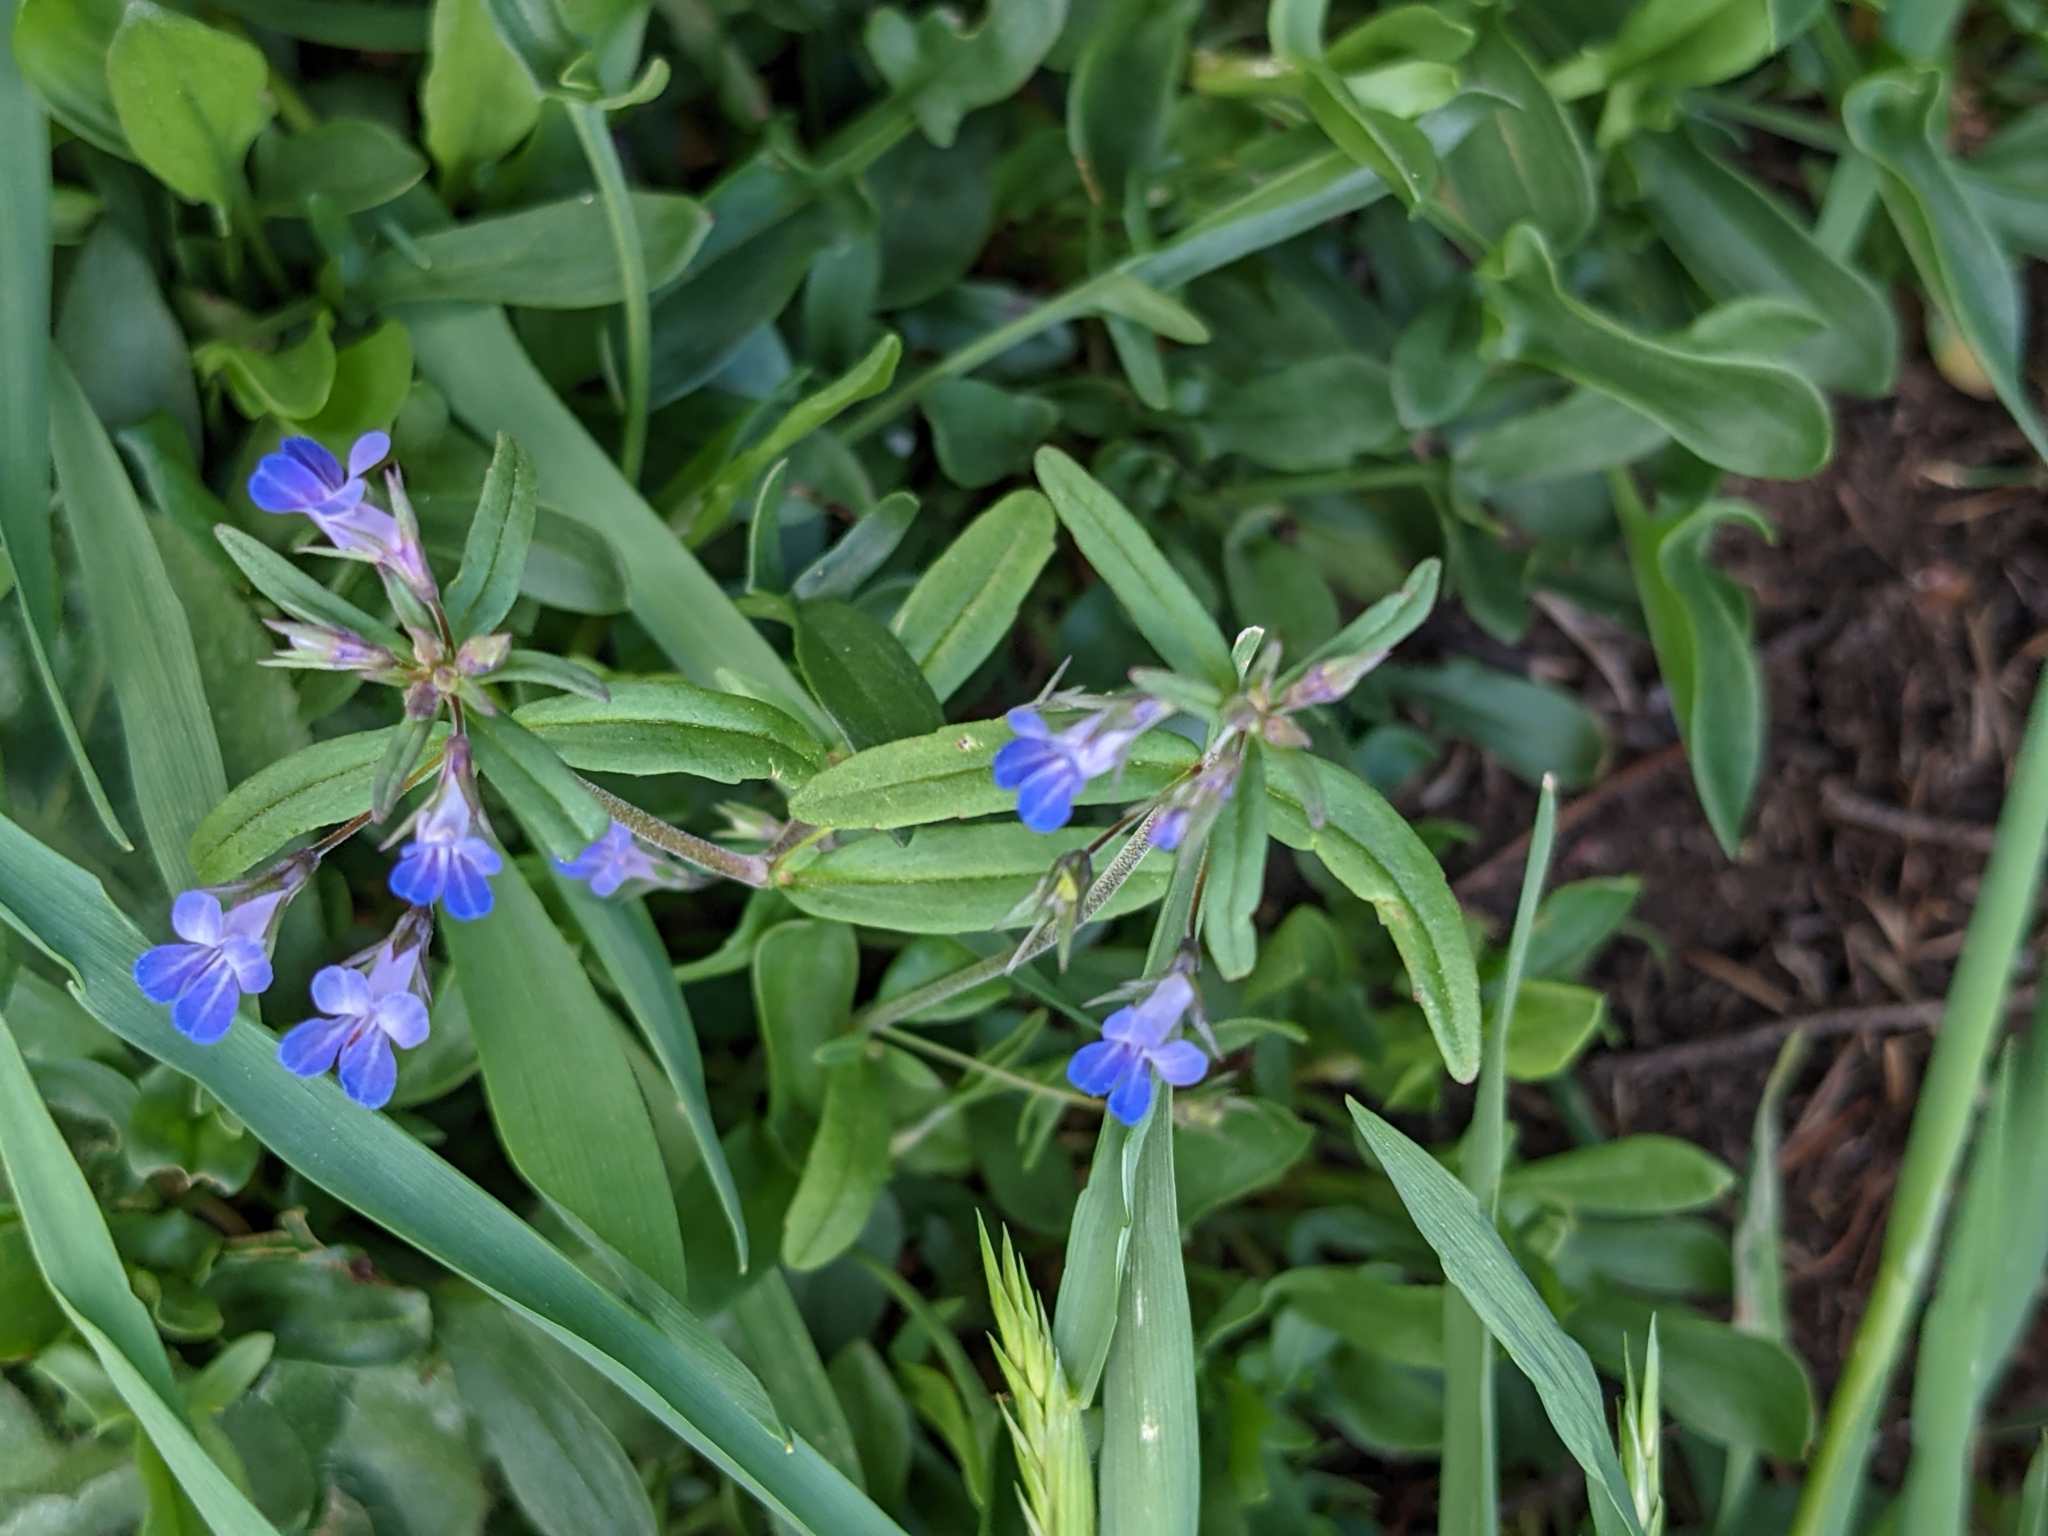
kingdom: Plantae
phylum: Tracheophyta
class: Magnoliopsida
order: Lamiales
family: Plantaginaceae
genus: Collinsia
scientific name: Collinsia parviflora
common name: Blue-lips
